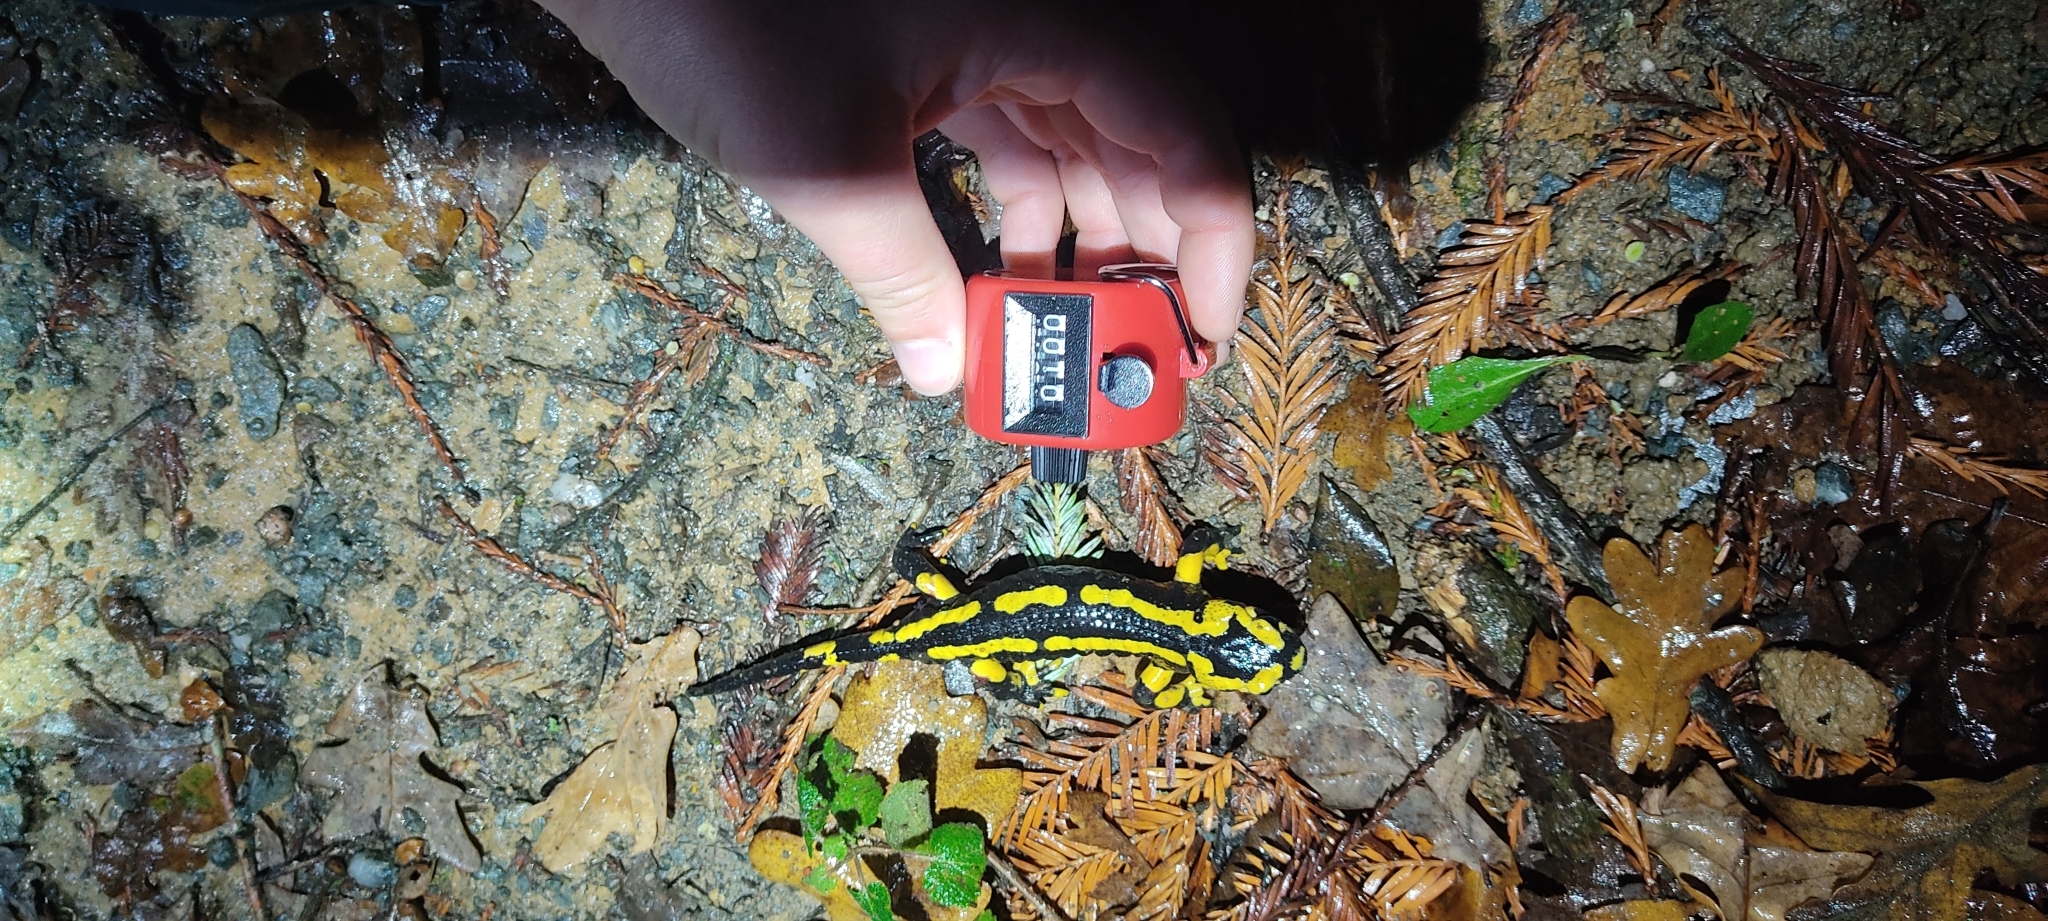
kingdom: Animalia
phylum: Chordata
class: Amphibia
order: Caudata
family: Salamandridae
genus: Salamandra
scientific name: Salamandra salamandra
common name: Fire salamander
